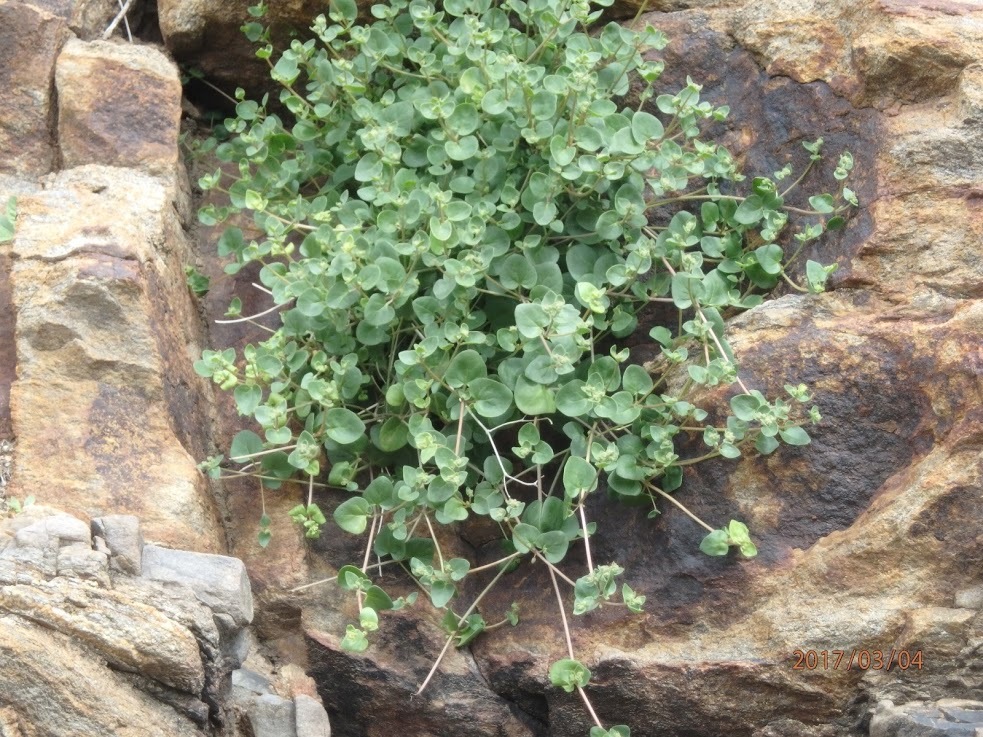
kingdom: Plantae
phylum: Tracheophyta
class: Magnoliopsida
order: Caryophyllales
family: Nyctaginaceae
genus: Mirabilis
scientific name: Mirabilis laevis
